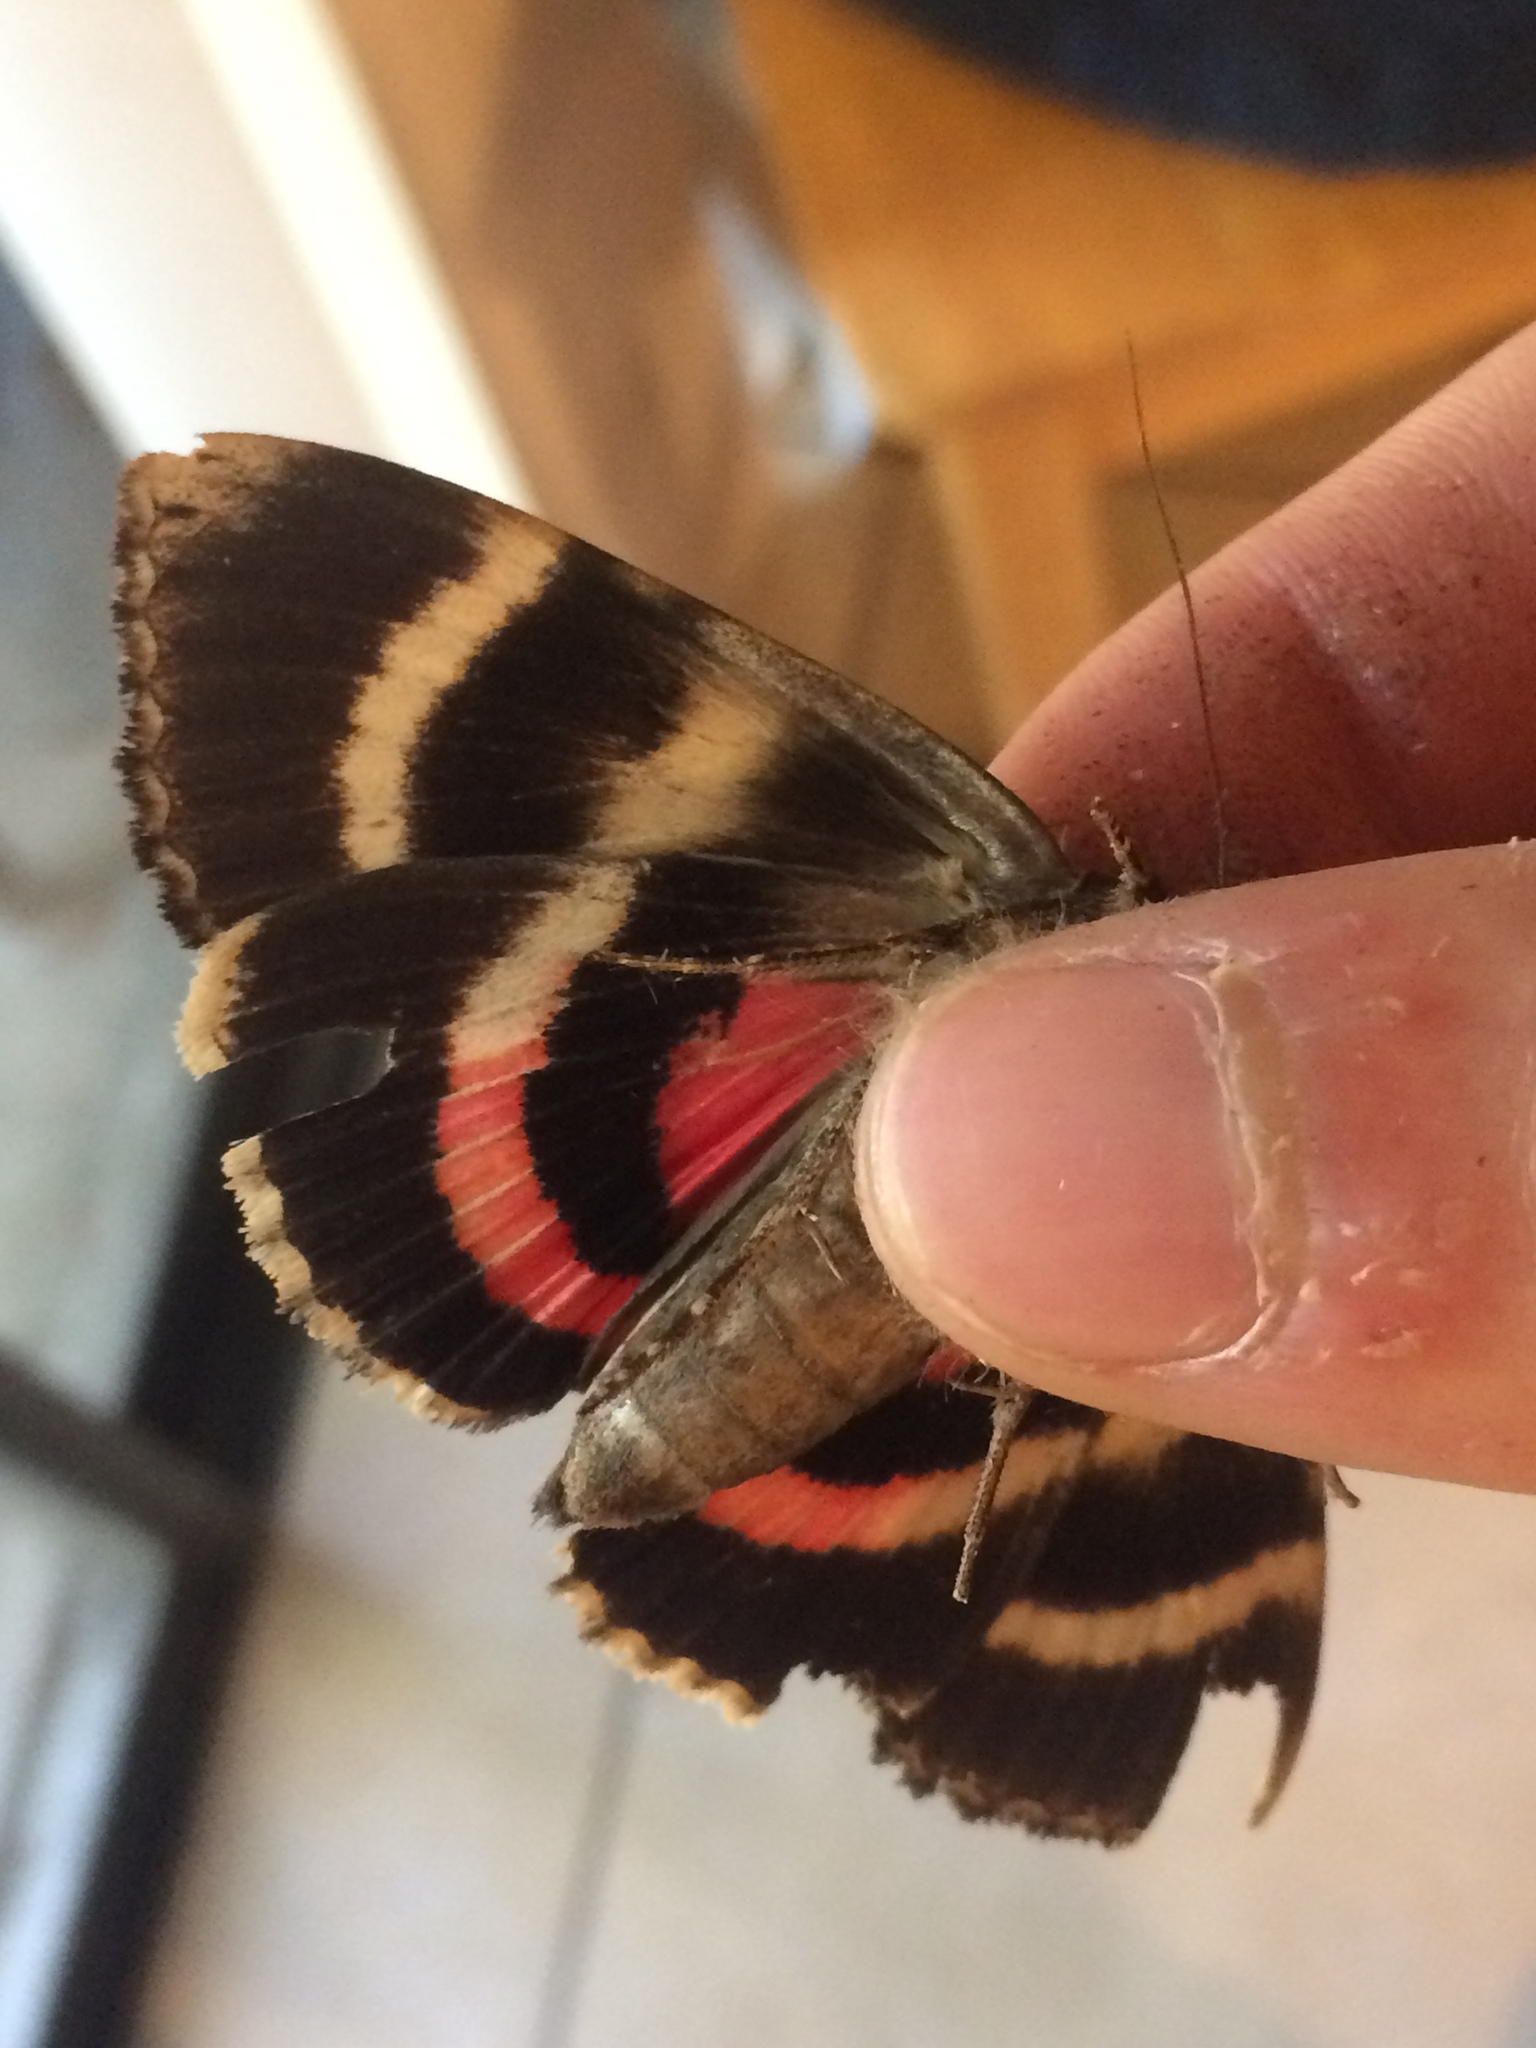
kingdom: Animalia
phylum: Arthropoda
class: Insecta
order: Lepidoptera
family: Erebidae
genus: Catocala
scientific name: Catocala carissima
